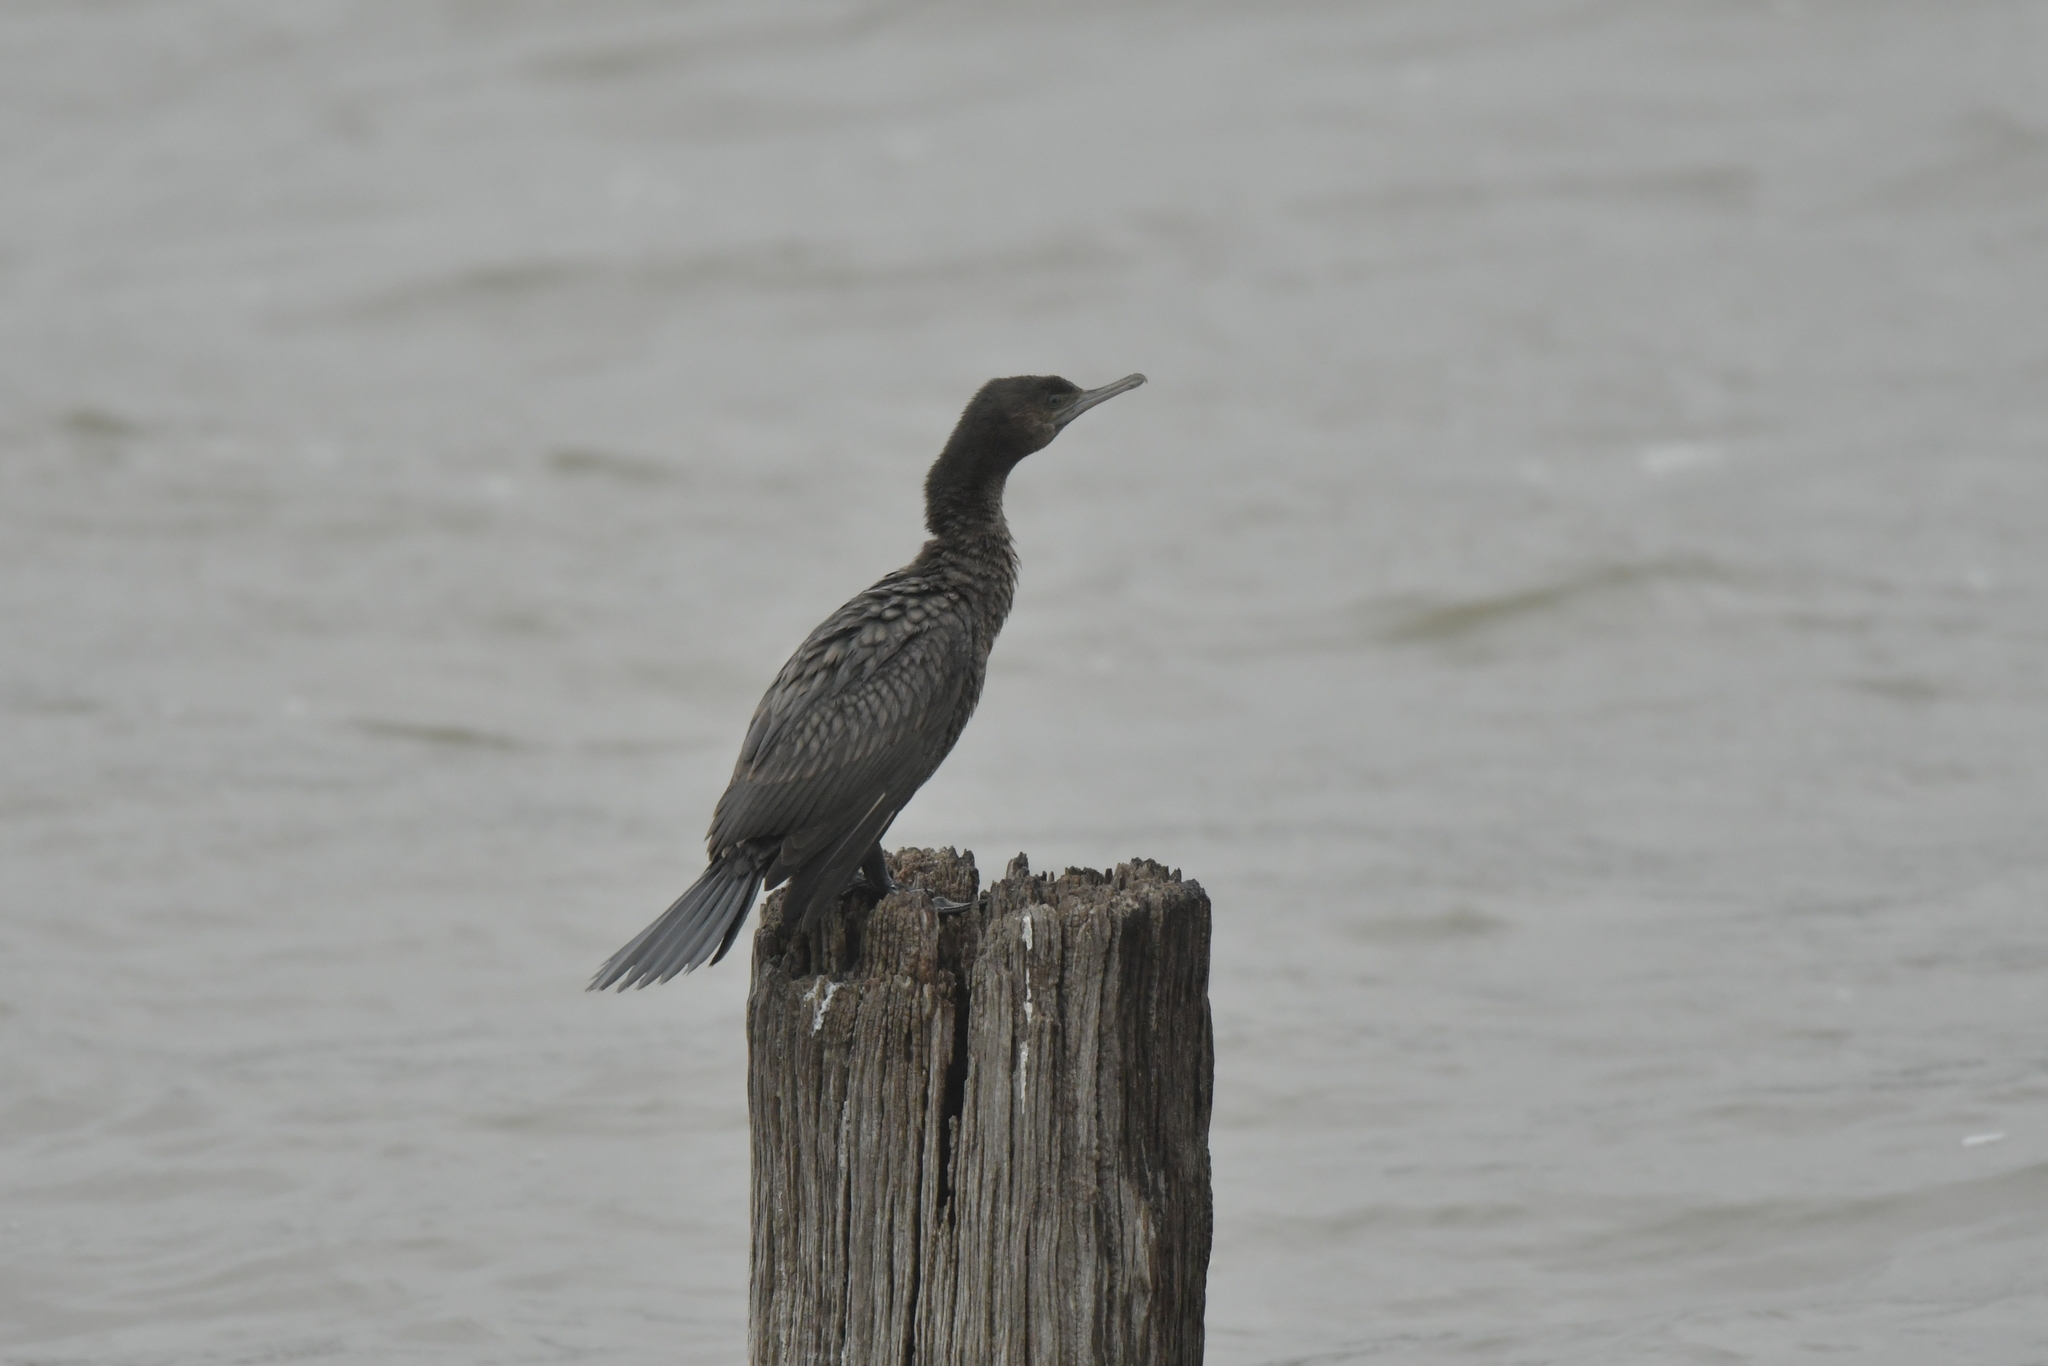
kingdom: Animalia
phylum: Chordata
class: Aves
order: Suliformes
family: Phalacrocoracidae
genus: Phalacrocorax
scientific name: Phalacrocorax sulcirostris
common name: Little black cormorant
